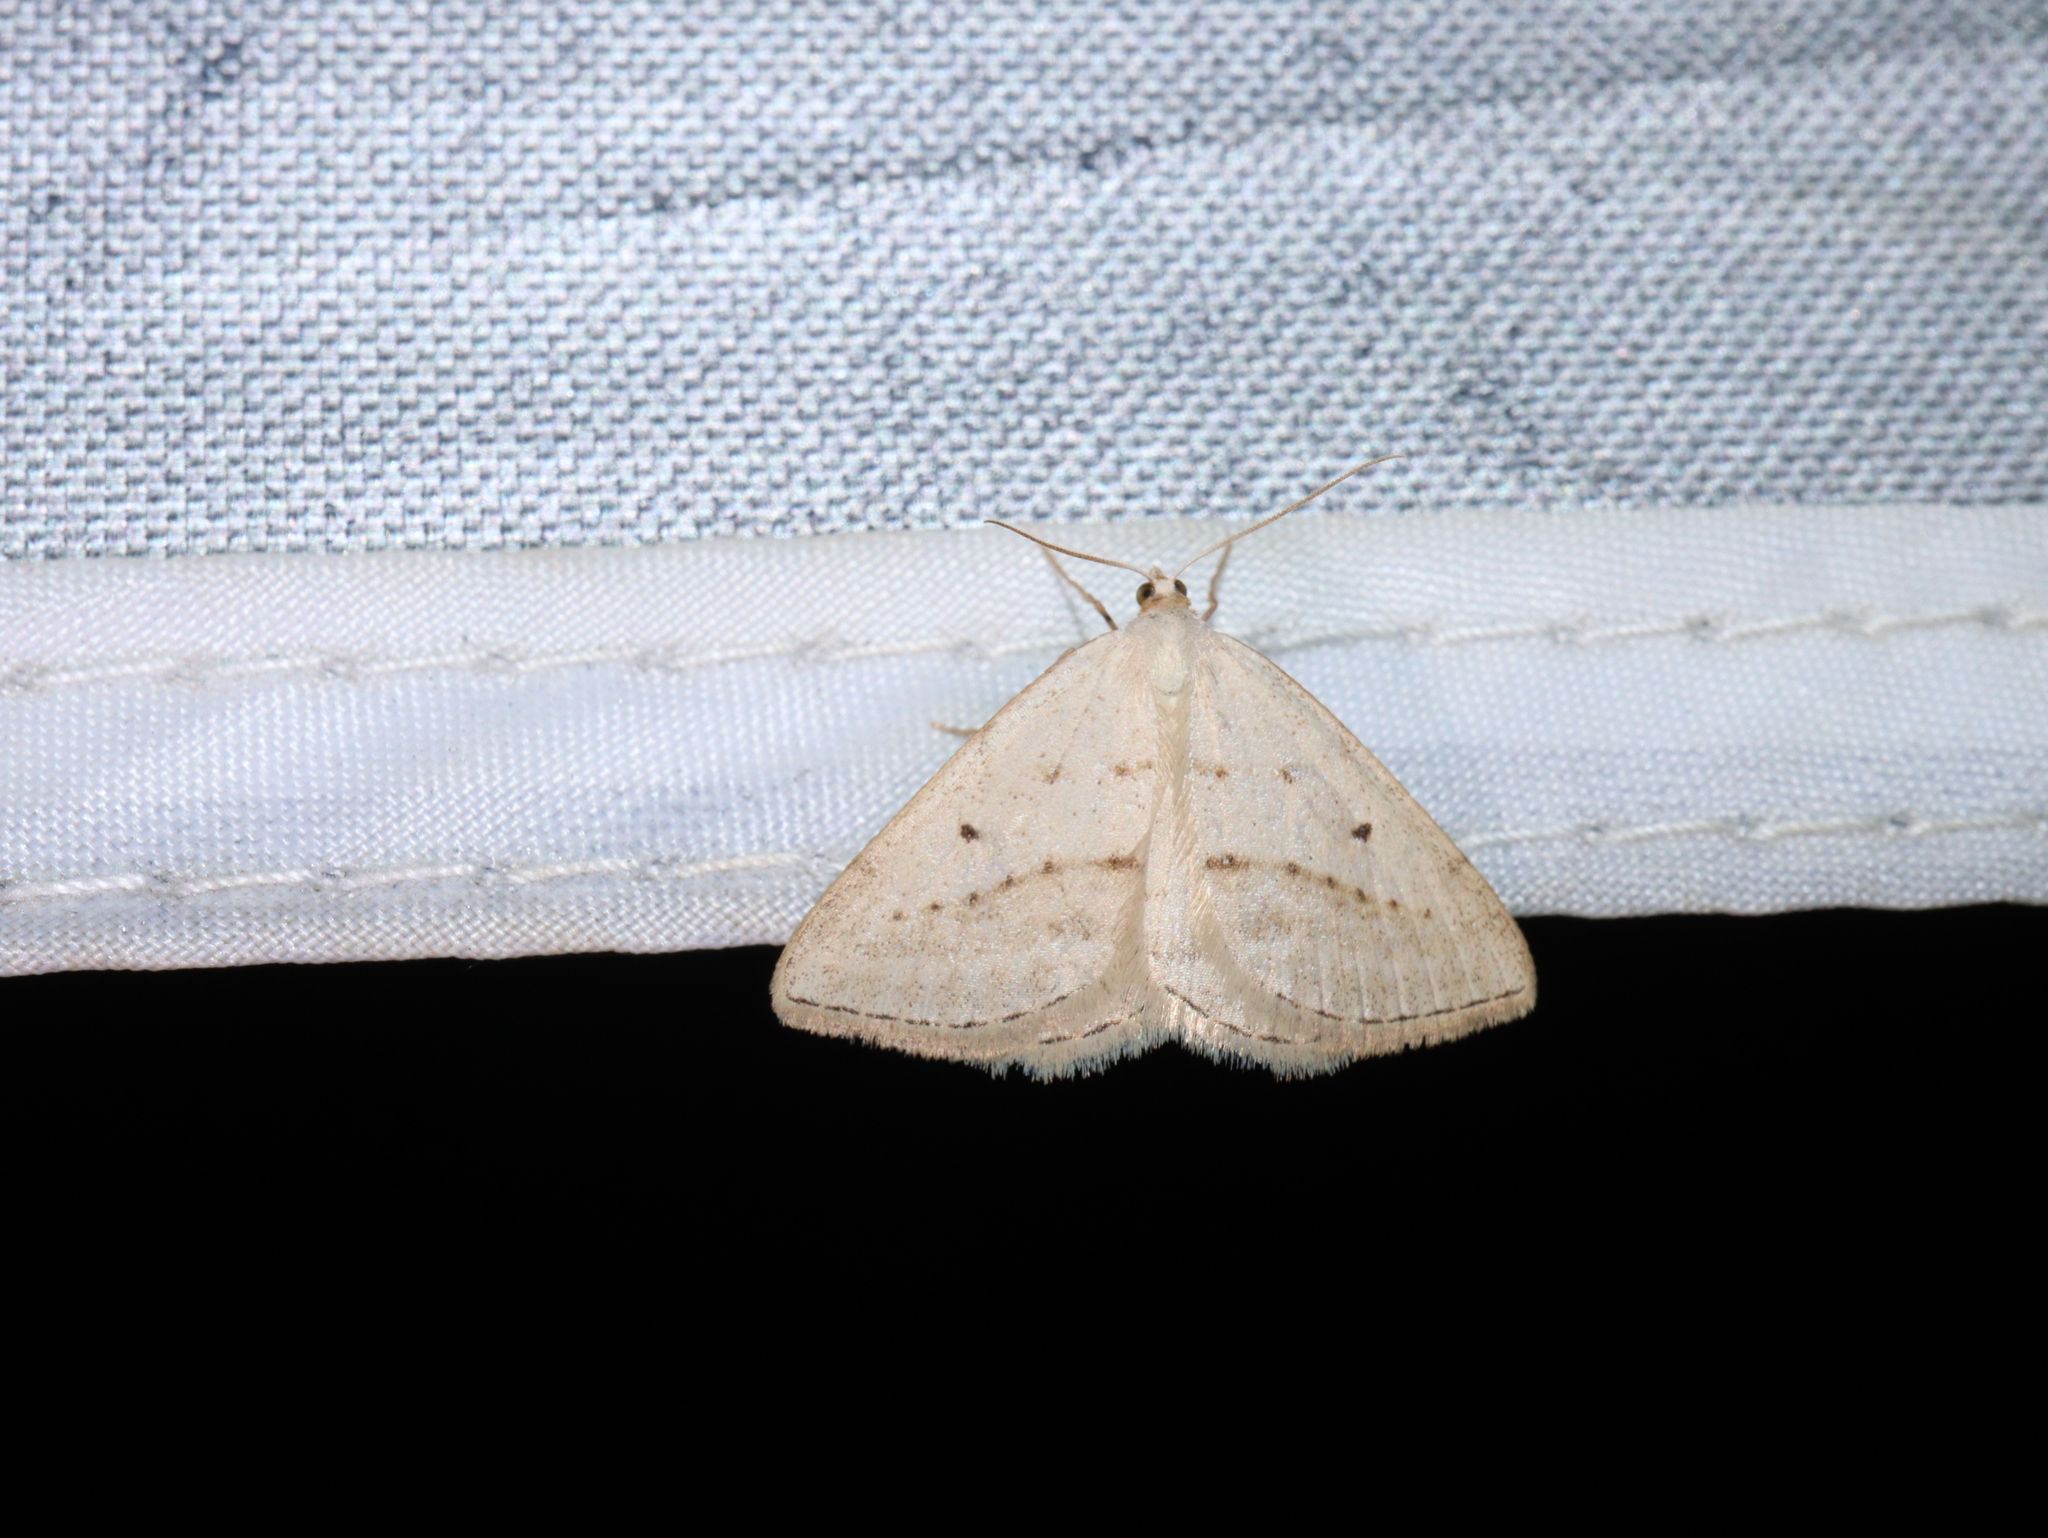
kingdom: Animalia
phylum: Arthropoda
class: Insecta
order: Lepidoptera
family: Geometridae
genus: Taxeotis
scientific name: Taxeotis endela
